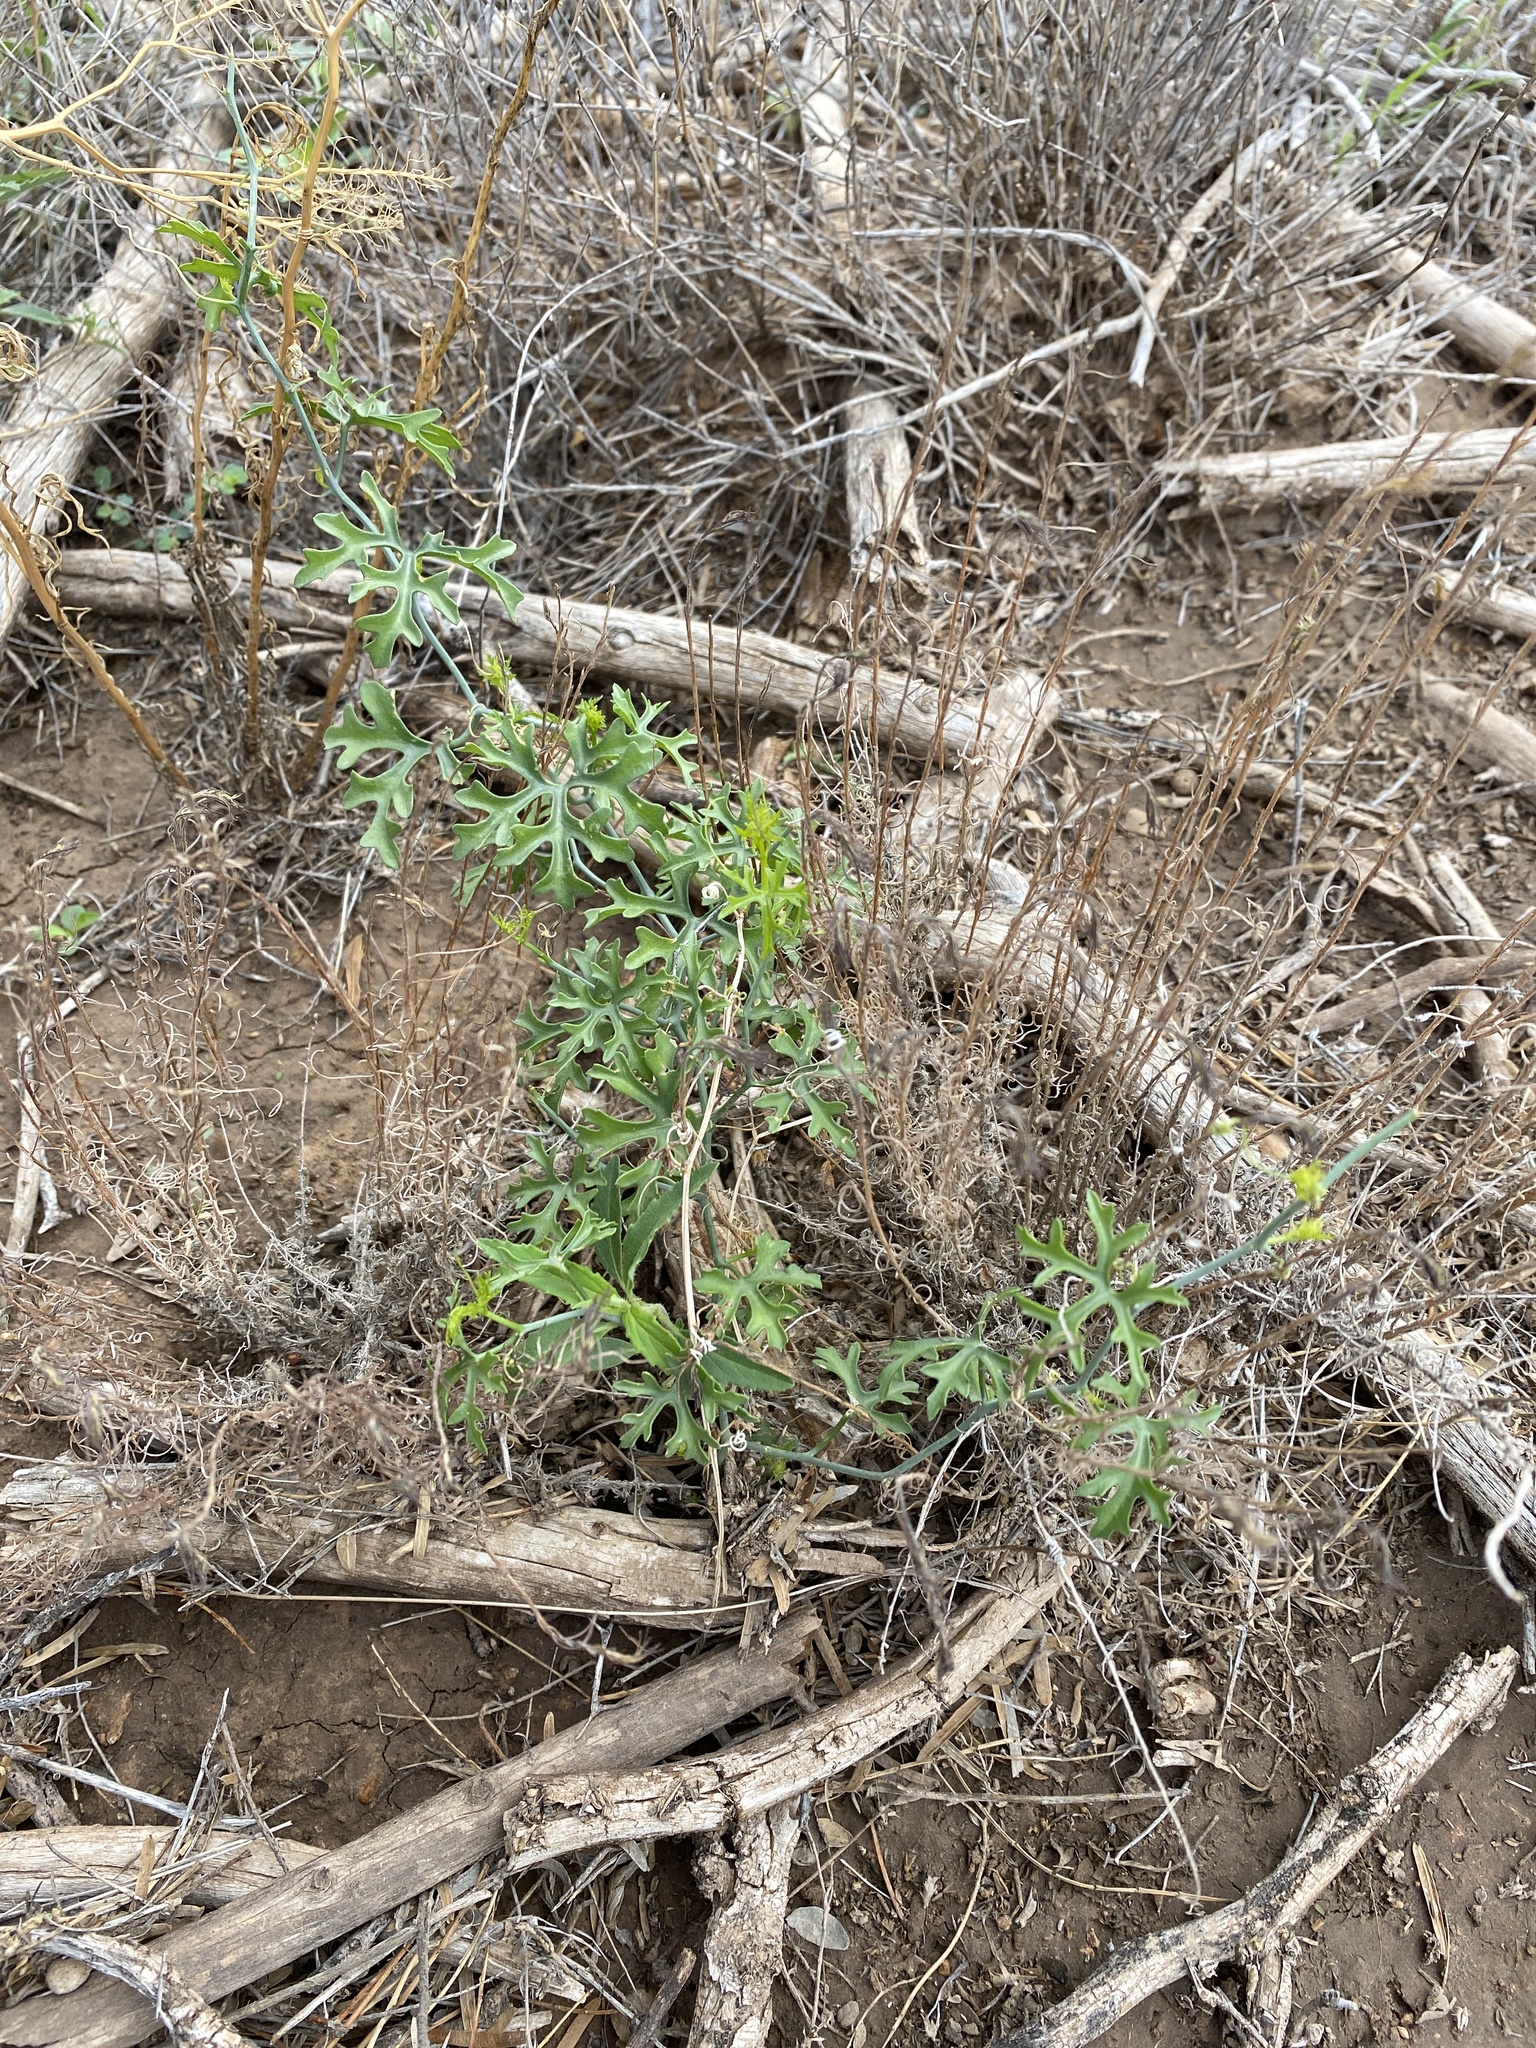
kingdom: Plantae
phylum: Tracheophyta
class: Magnoliopsida
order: Cucurbitales
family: Cucurbitaceae
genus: Ibervillea
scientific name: Ibervillea tenuisecta
